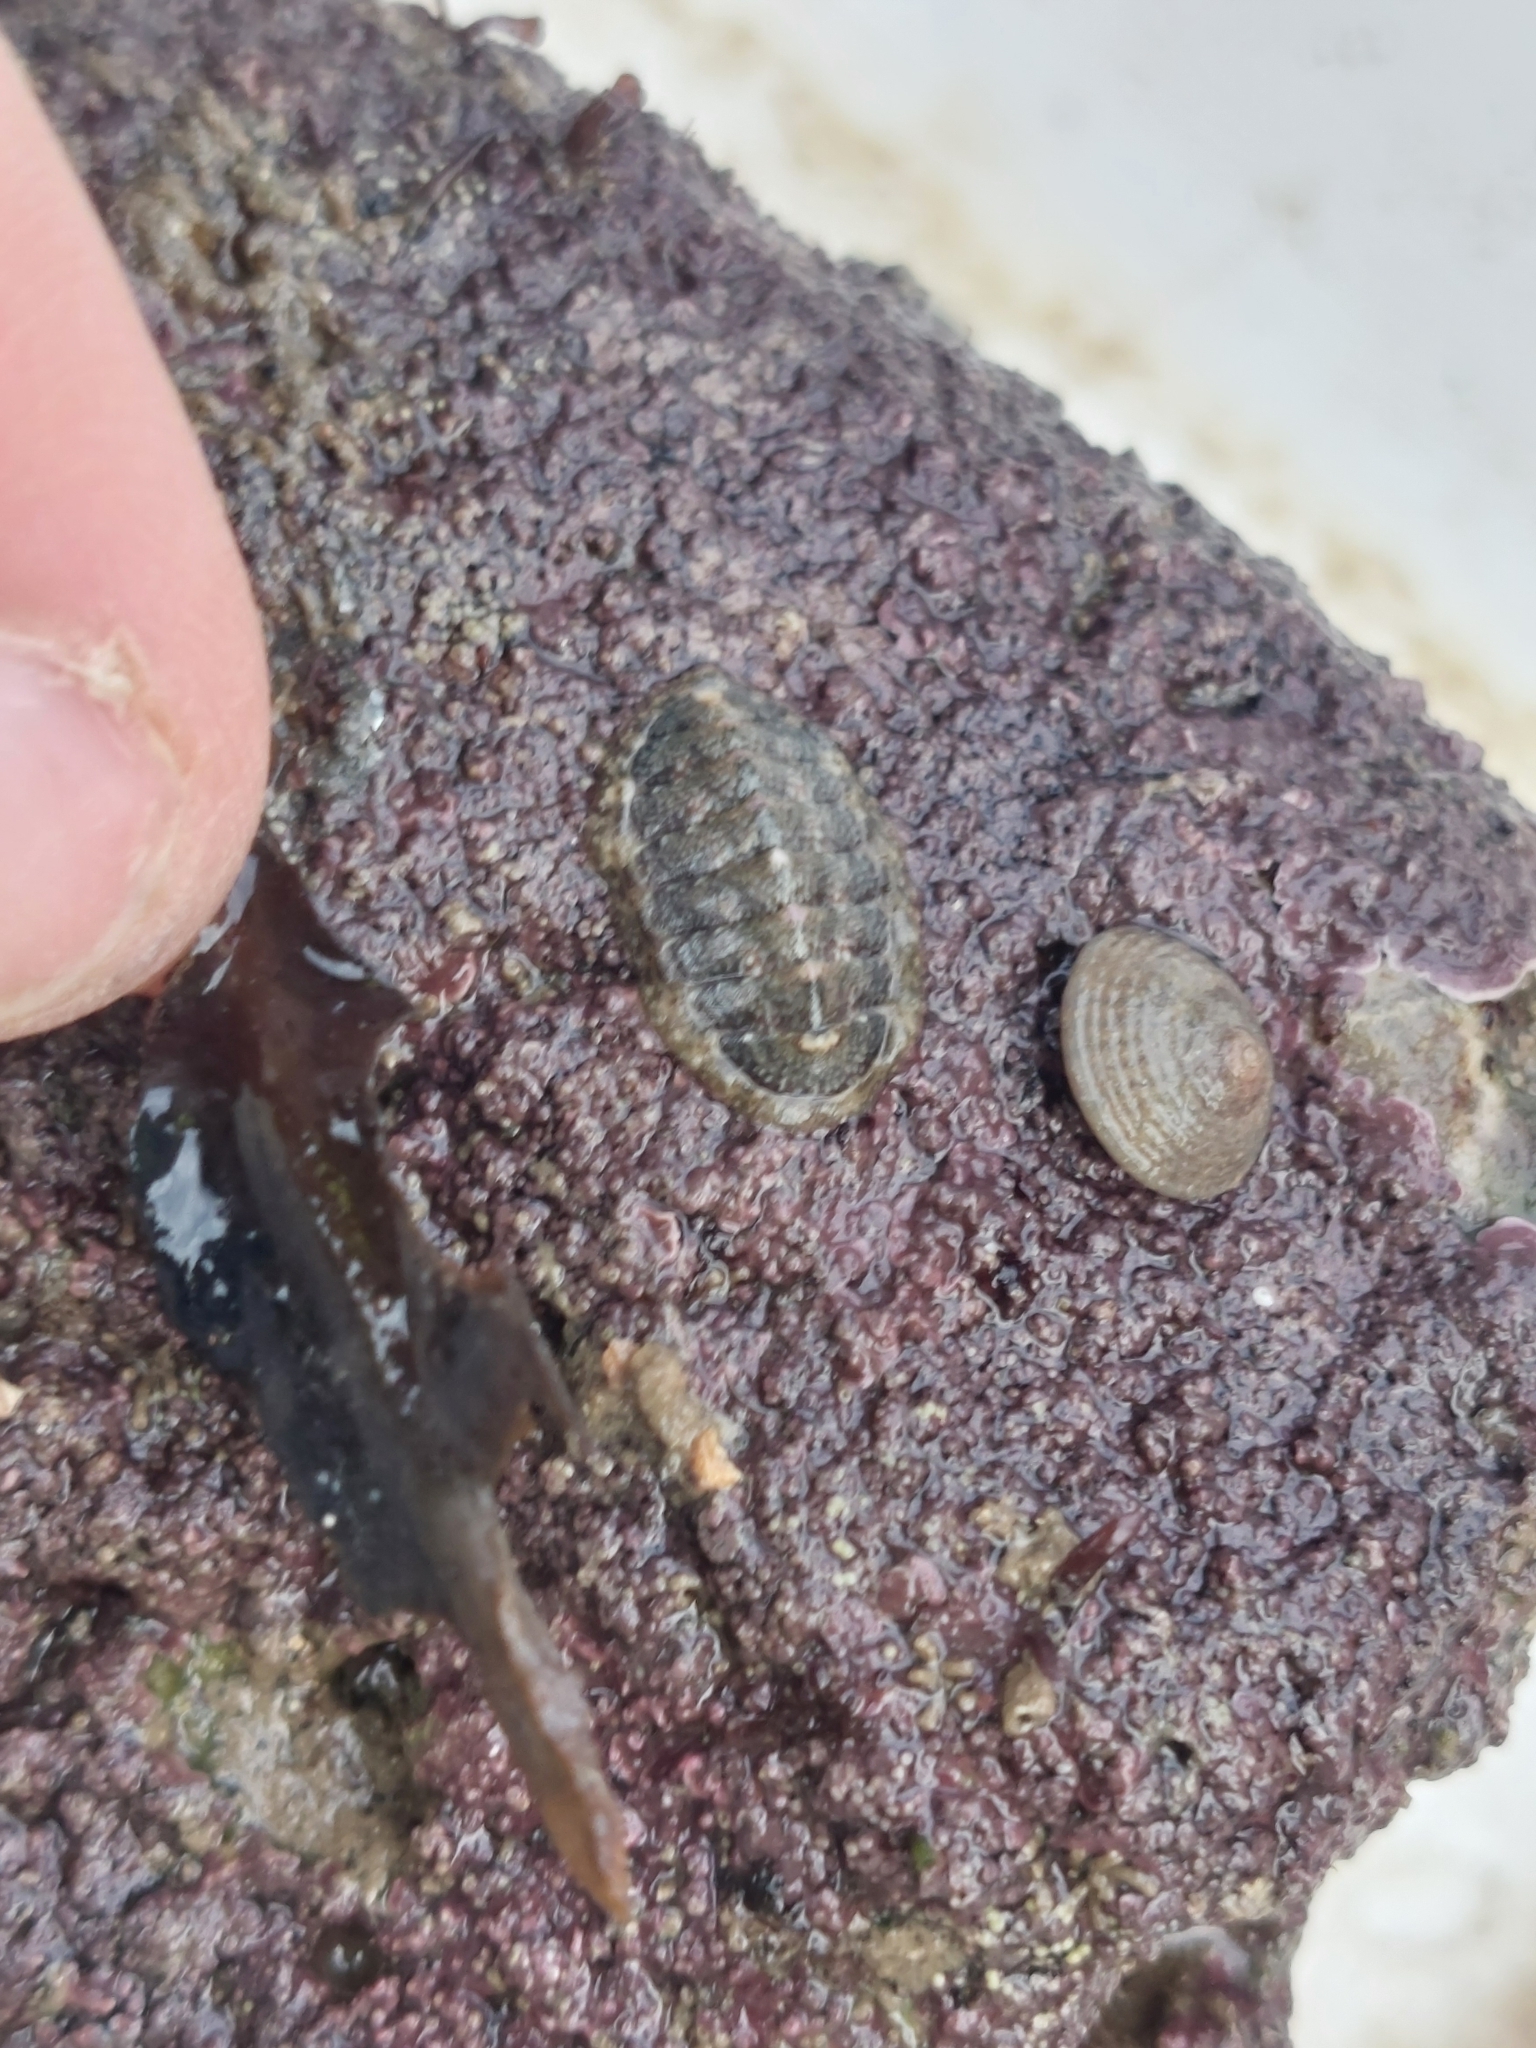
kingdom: Animalia
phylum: Mollusca
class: Polyplacophora
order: Chitonida
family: Tonicellidae
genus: Lepidochitona
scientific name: Lepidochitona cinerea
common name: Cinereous chiton
